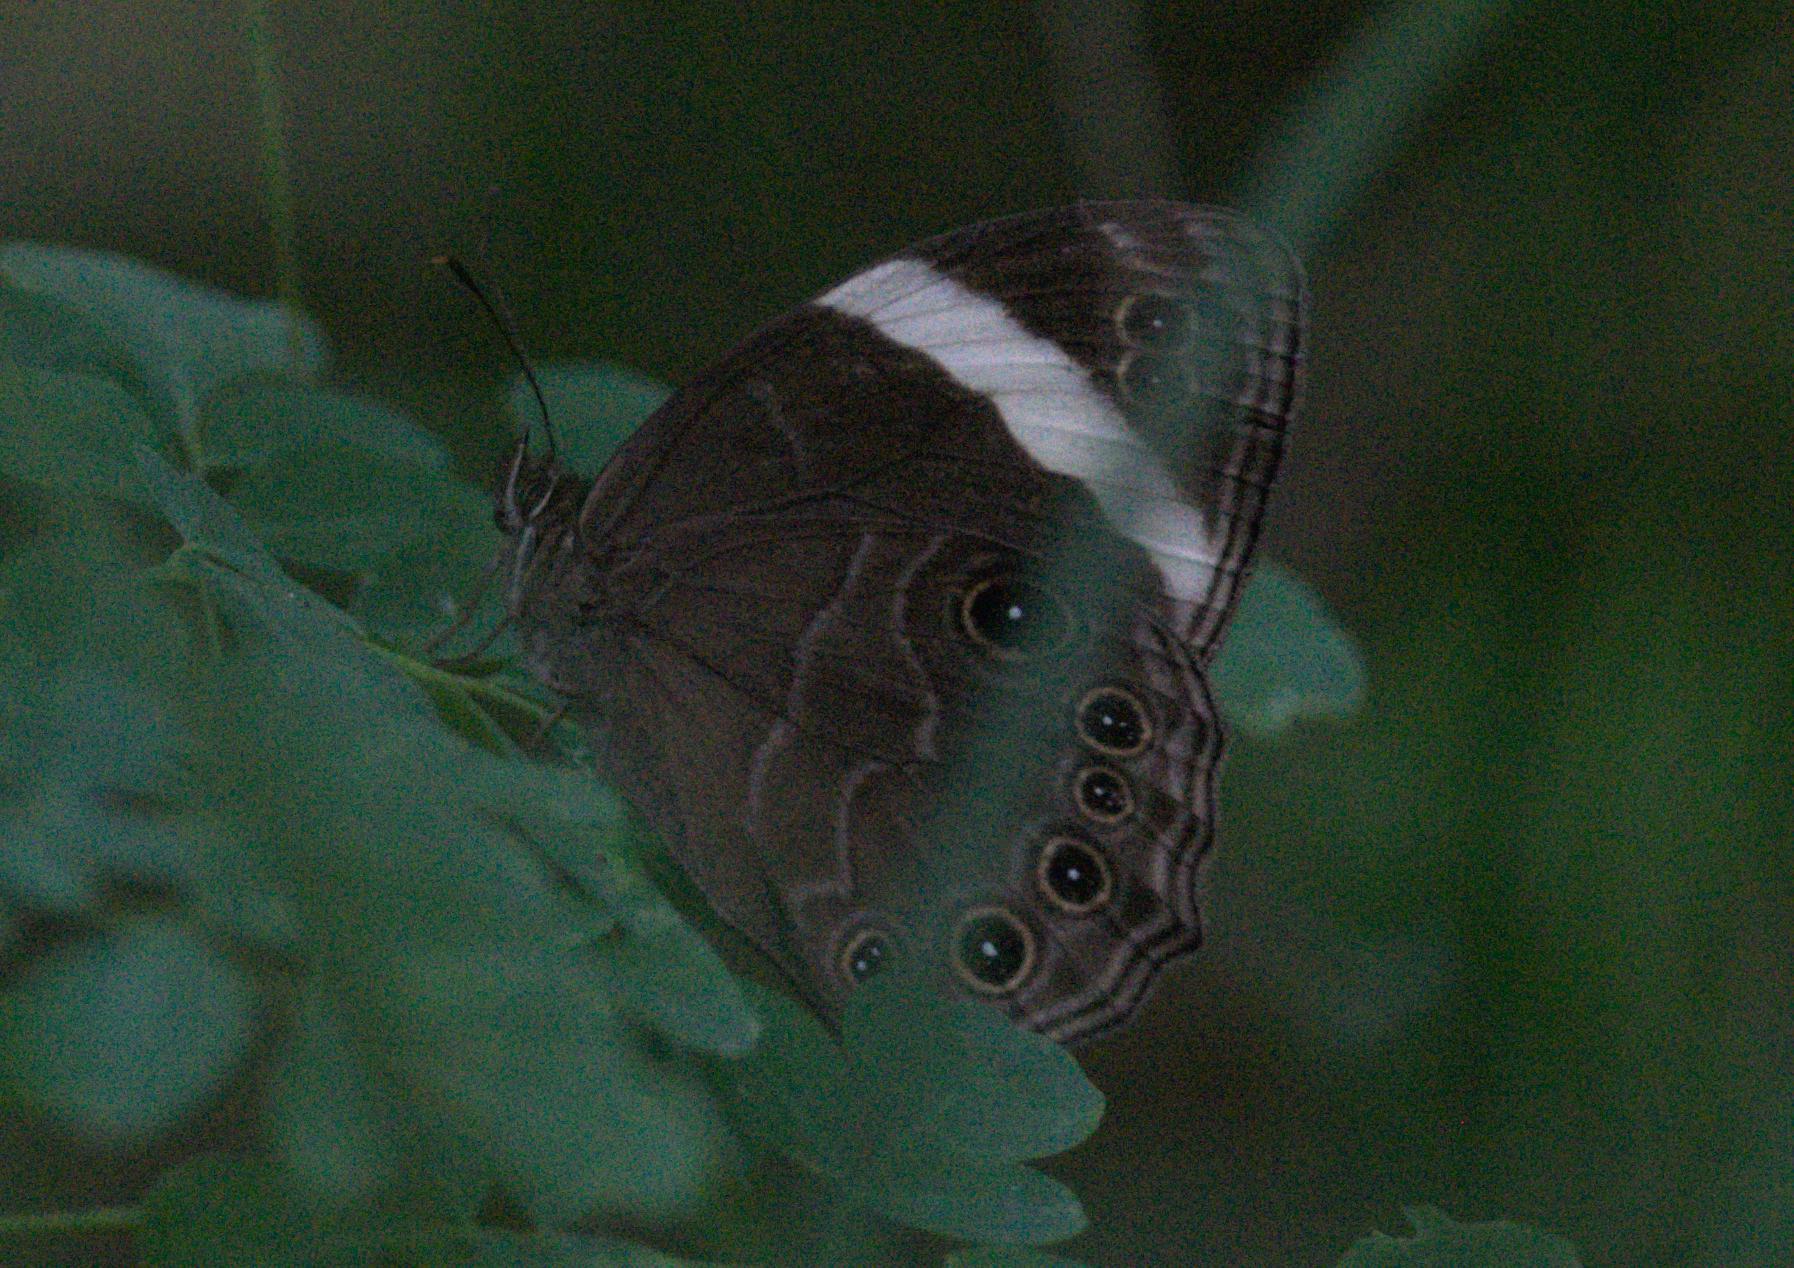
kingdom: Animalia
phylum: Arthropoda
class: Insecta
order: Lepidoptera
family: Nymphalidae
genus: Lethe
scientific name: Lethe verma
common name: Straight-banded treebrown
